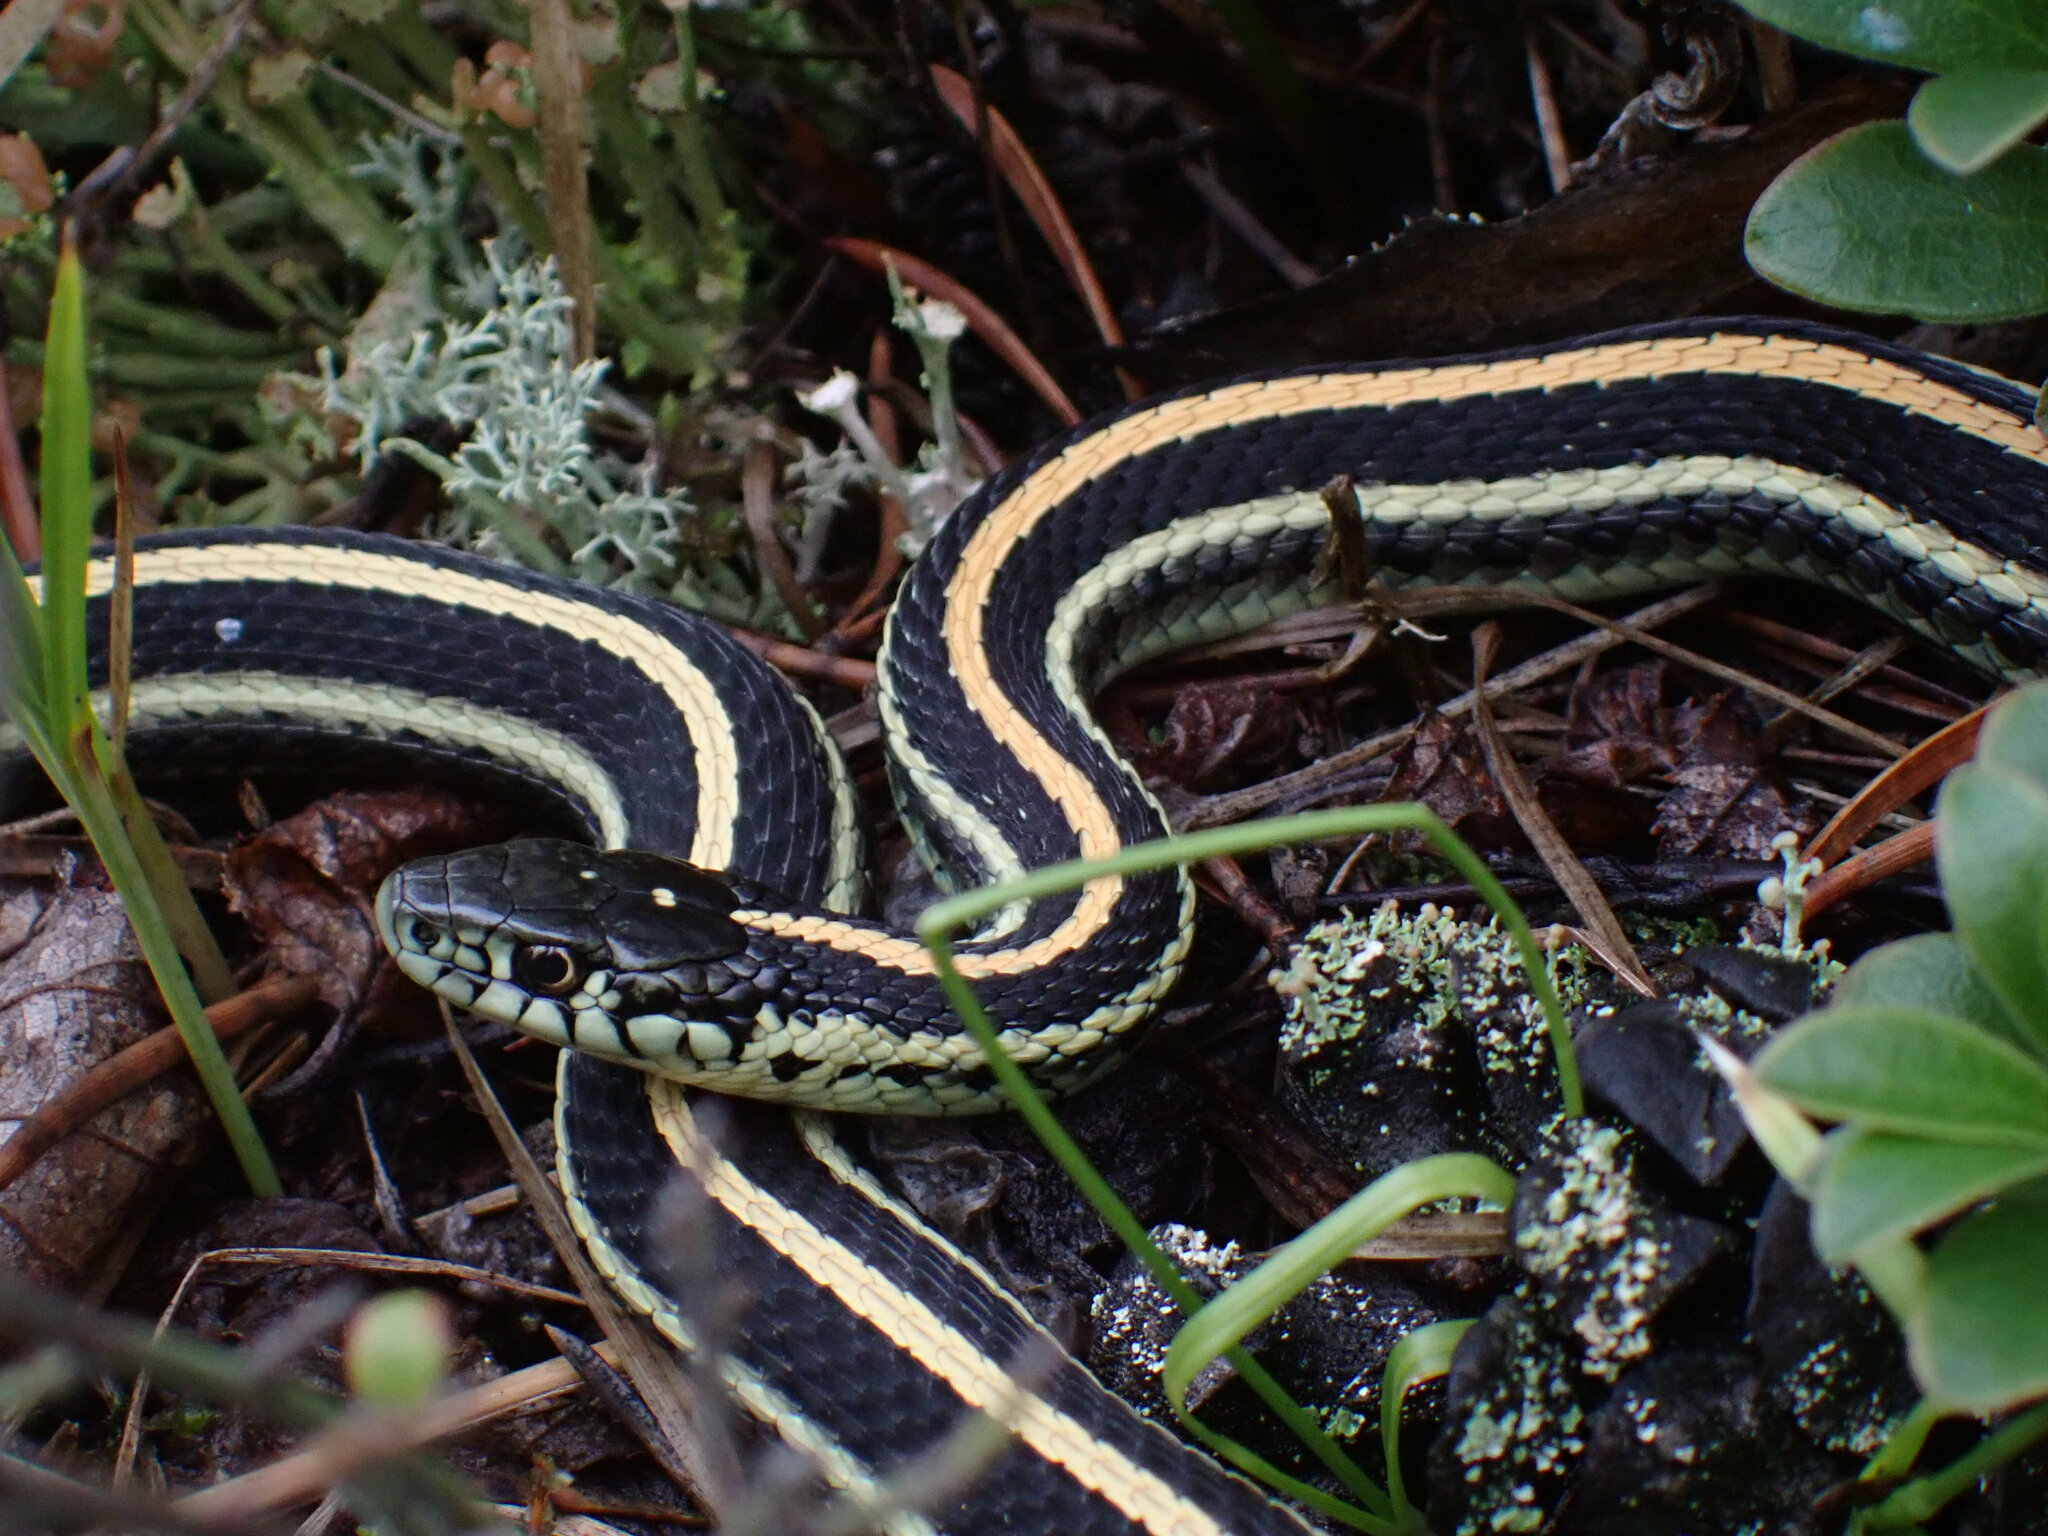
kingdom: Animalia
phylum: Chordata
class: Squamata
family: Colubridae
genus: Thamnophis
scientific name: Thamnophis radix
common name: Plains garter snake
